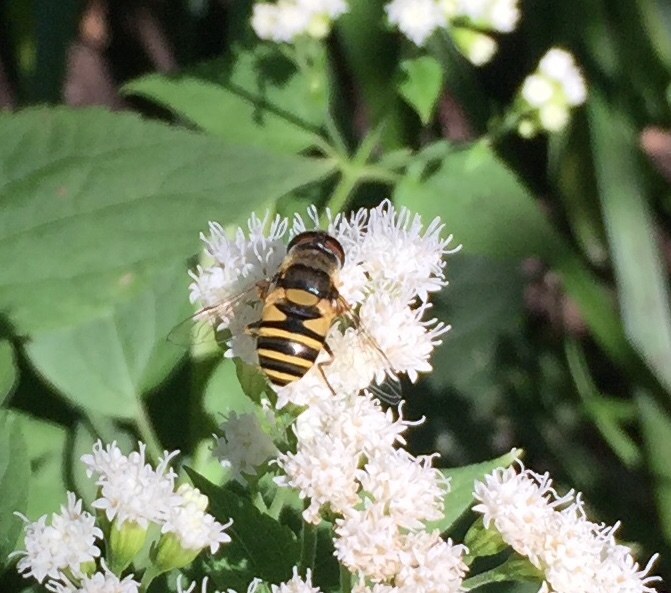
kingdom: Animalia
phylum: Arthropoda
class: Insecta
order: Diptera
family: Syrphidae
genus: Eristalis
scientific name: Eristalis transversa
